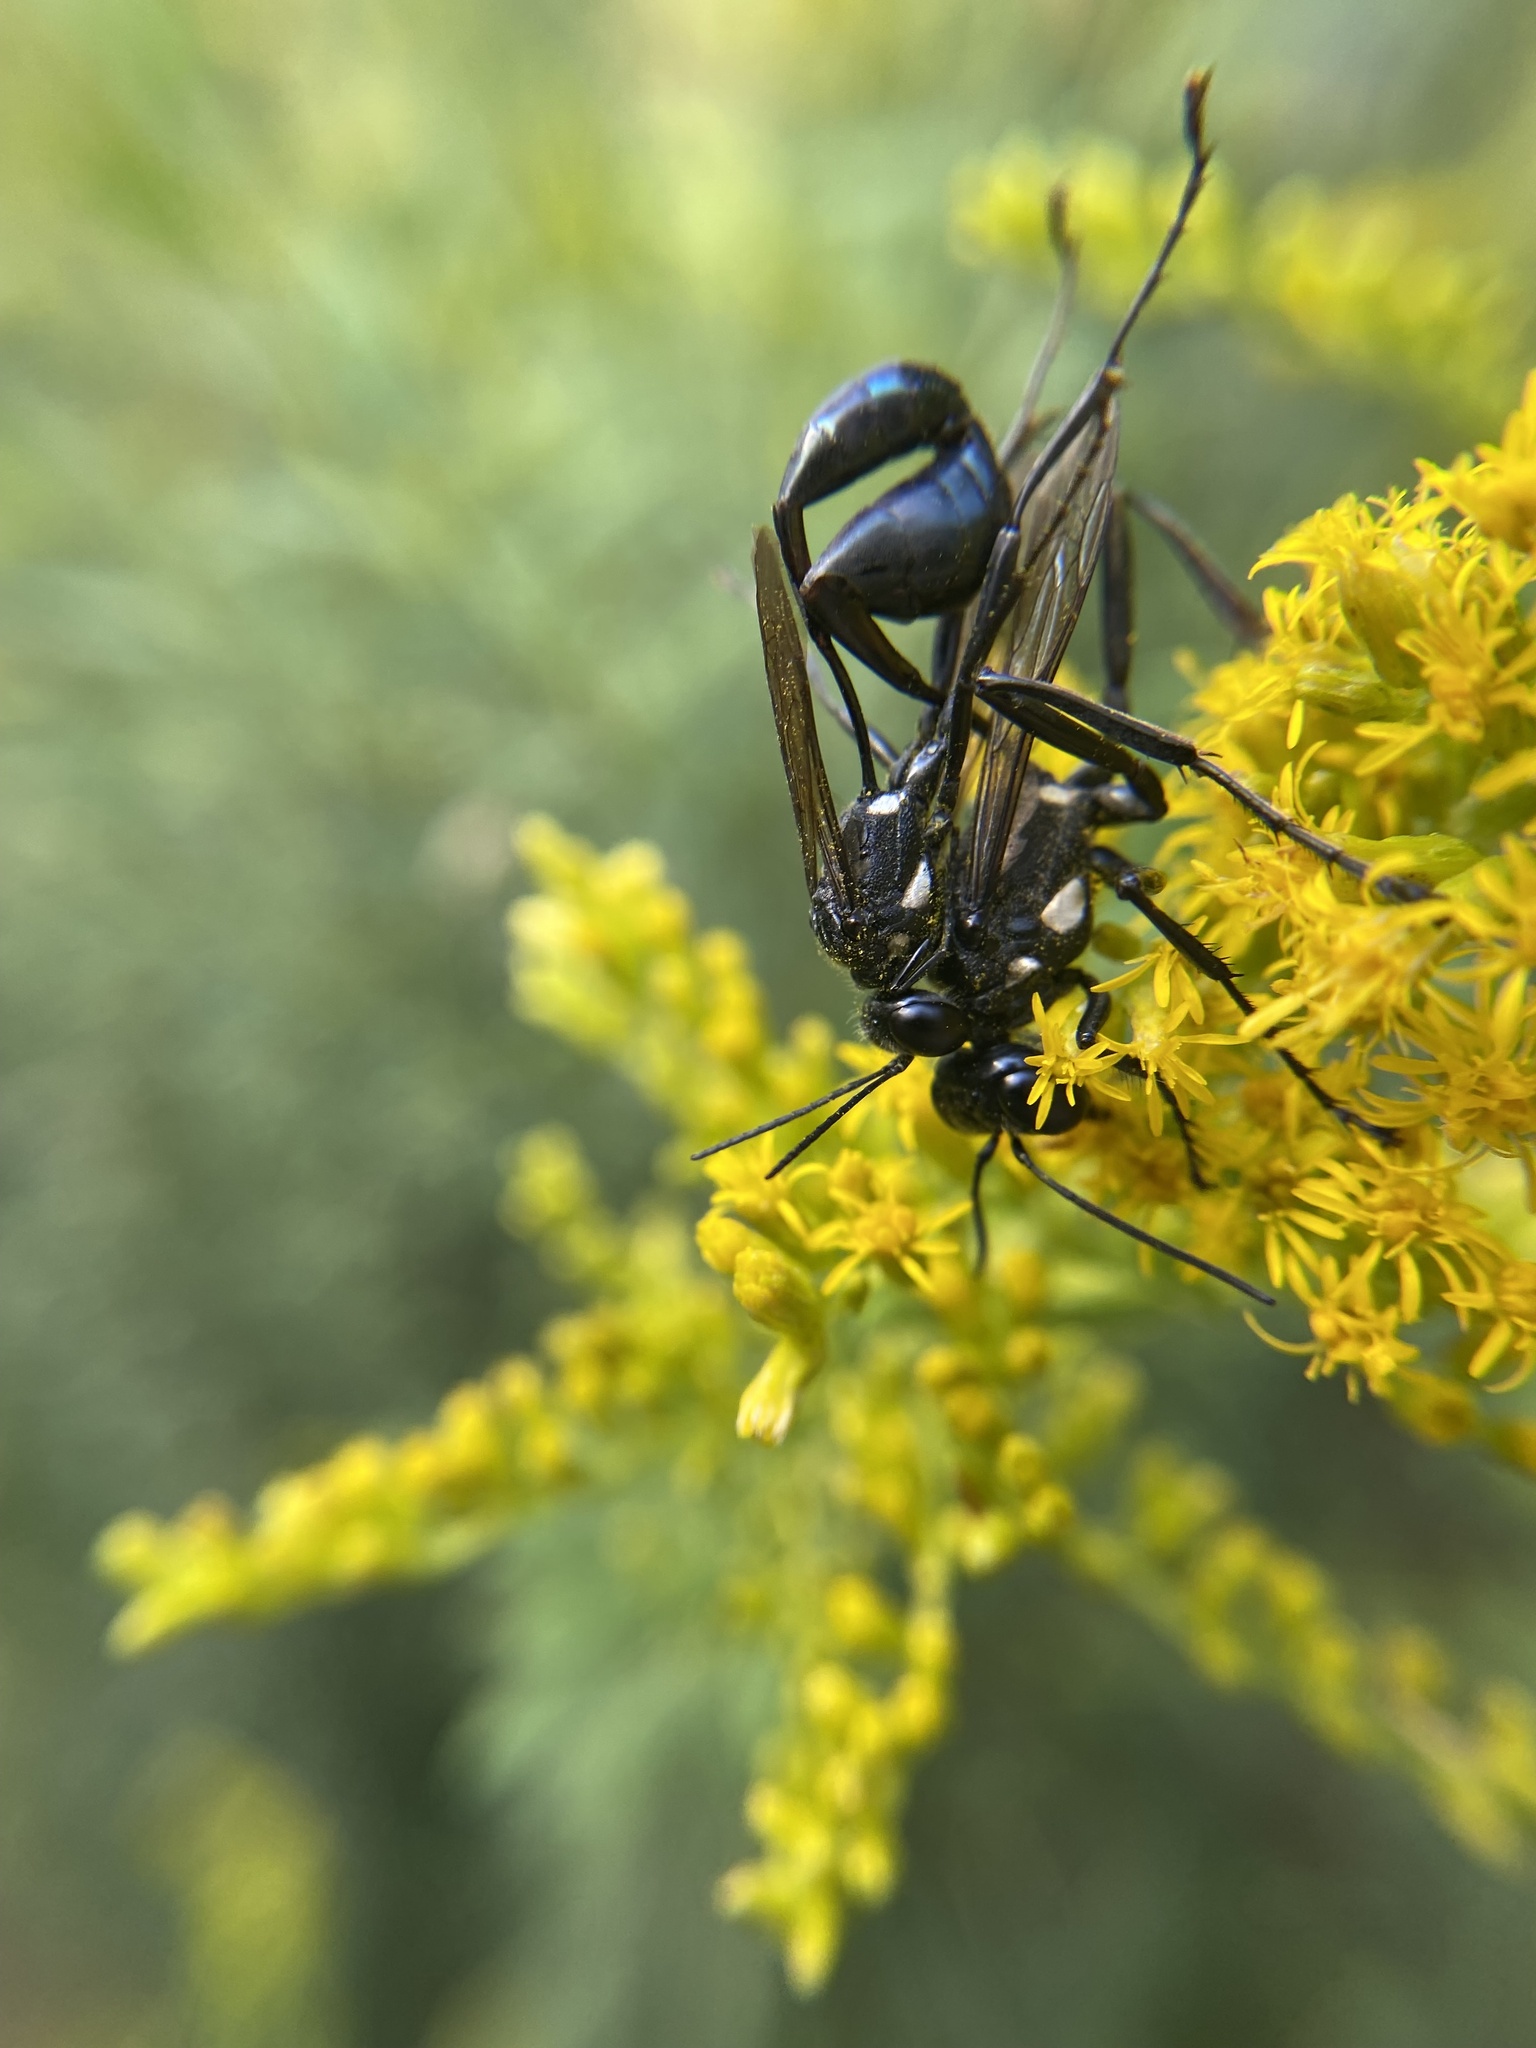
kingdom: Animalia
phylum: Arthropoda
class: Insecta
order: Hymenoptera
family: Sphecidae
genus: Eremnophila
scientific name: Eremnophila aureonotata
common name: Gold-marked thread-waisted wasp
